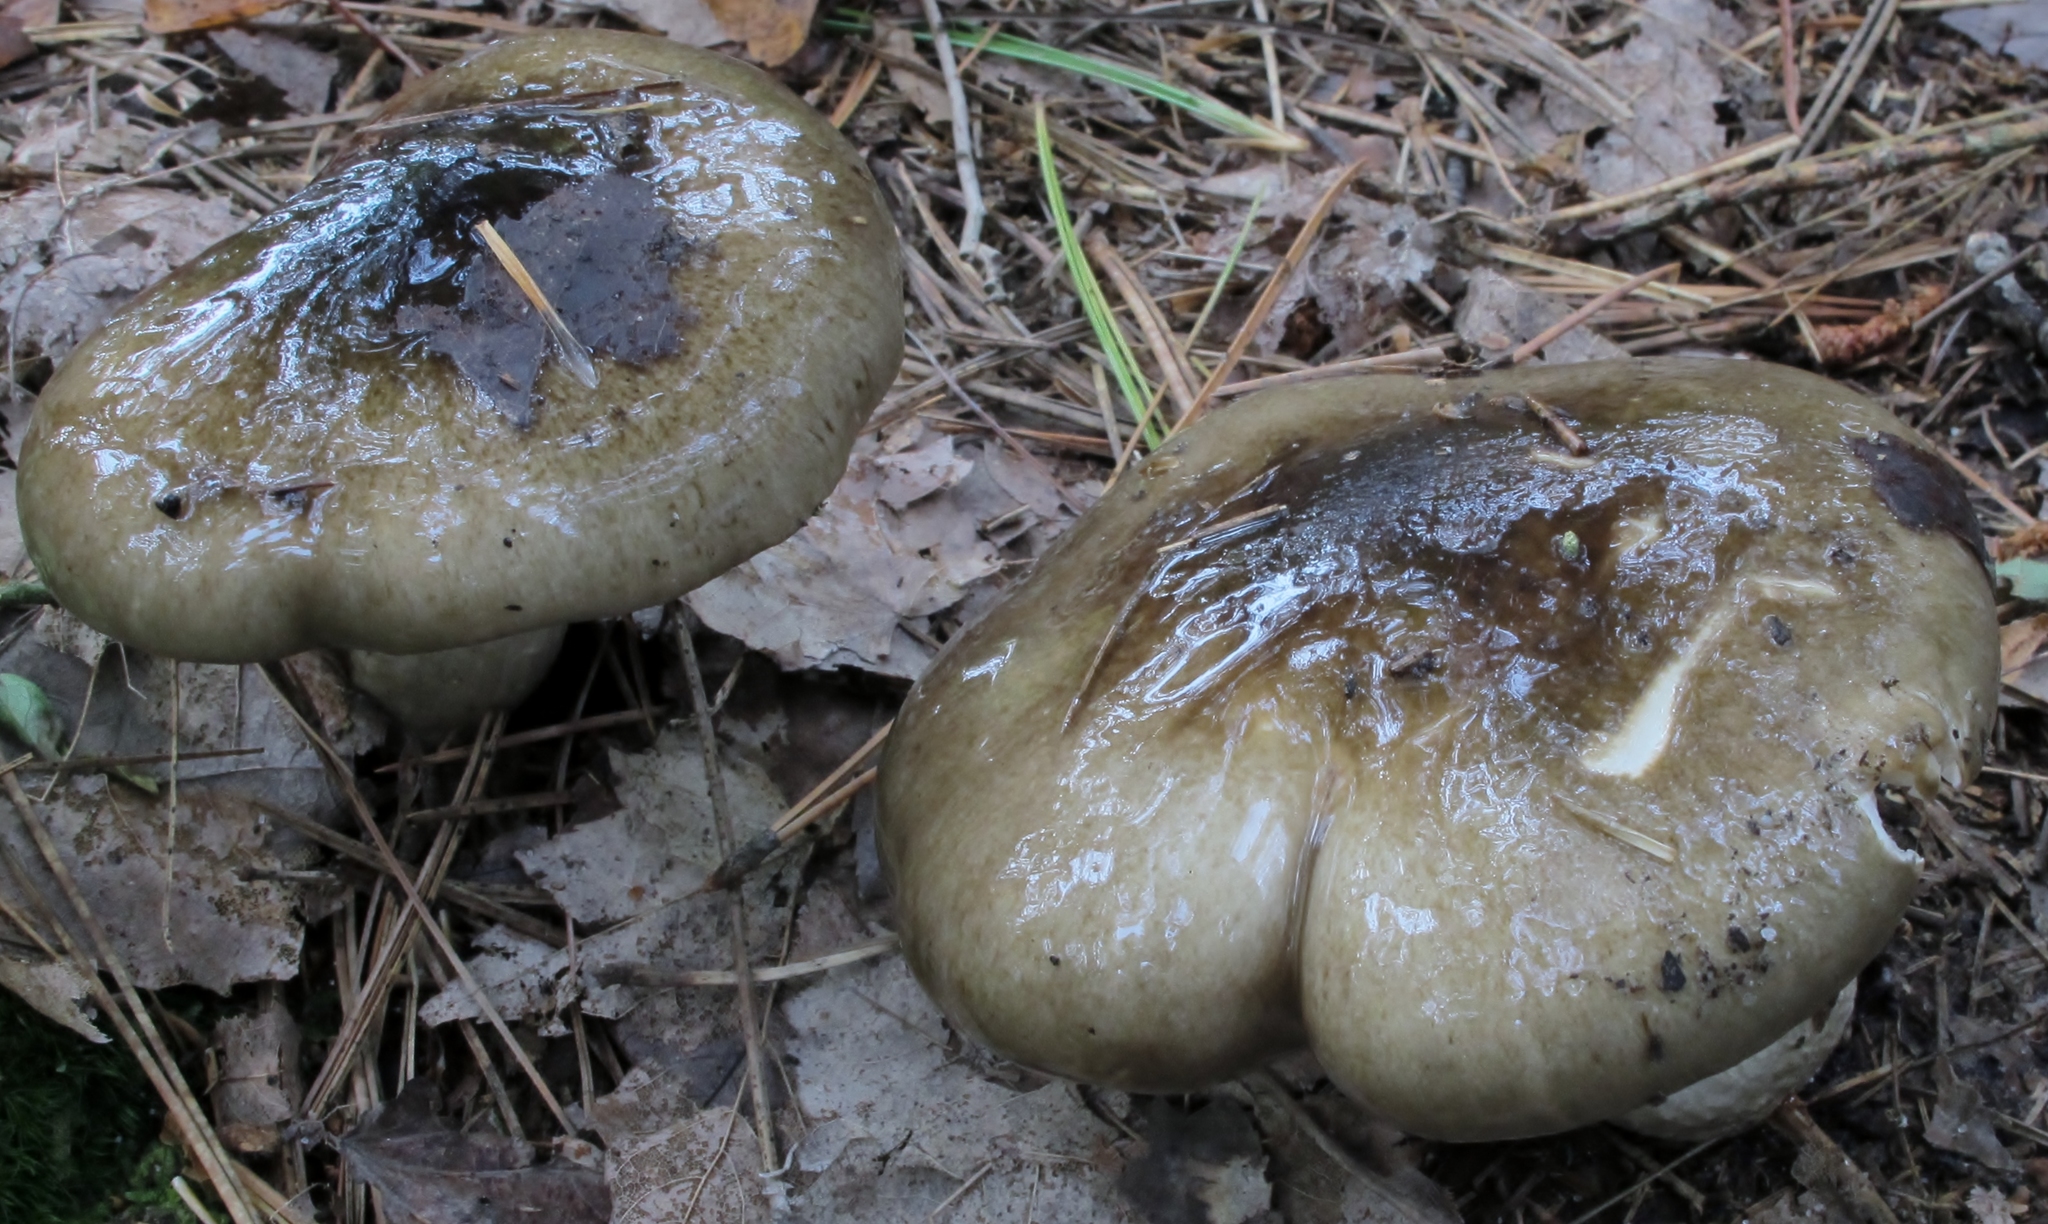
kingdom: Fungi
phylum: Basidiomycota
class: Agaricomycetes
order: Agaricales
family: Hygrophoraceae
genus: Hygrophorus
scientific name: Hygrophorus fuligineus
